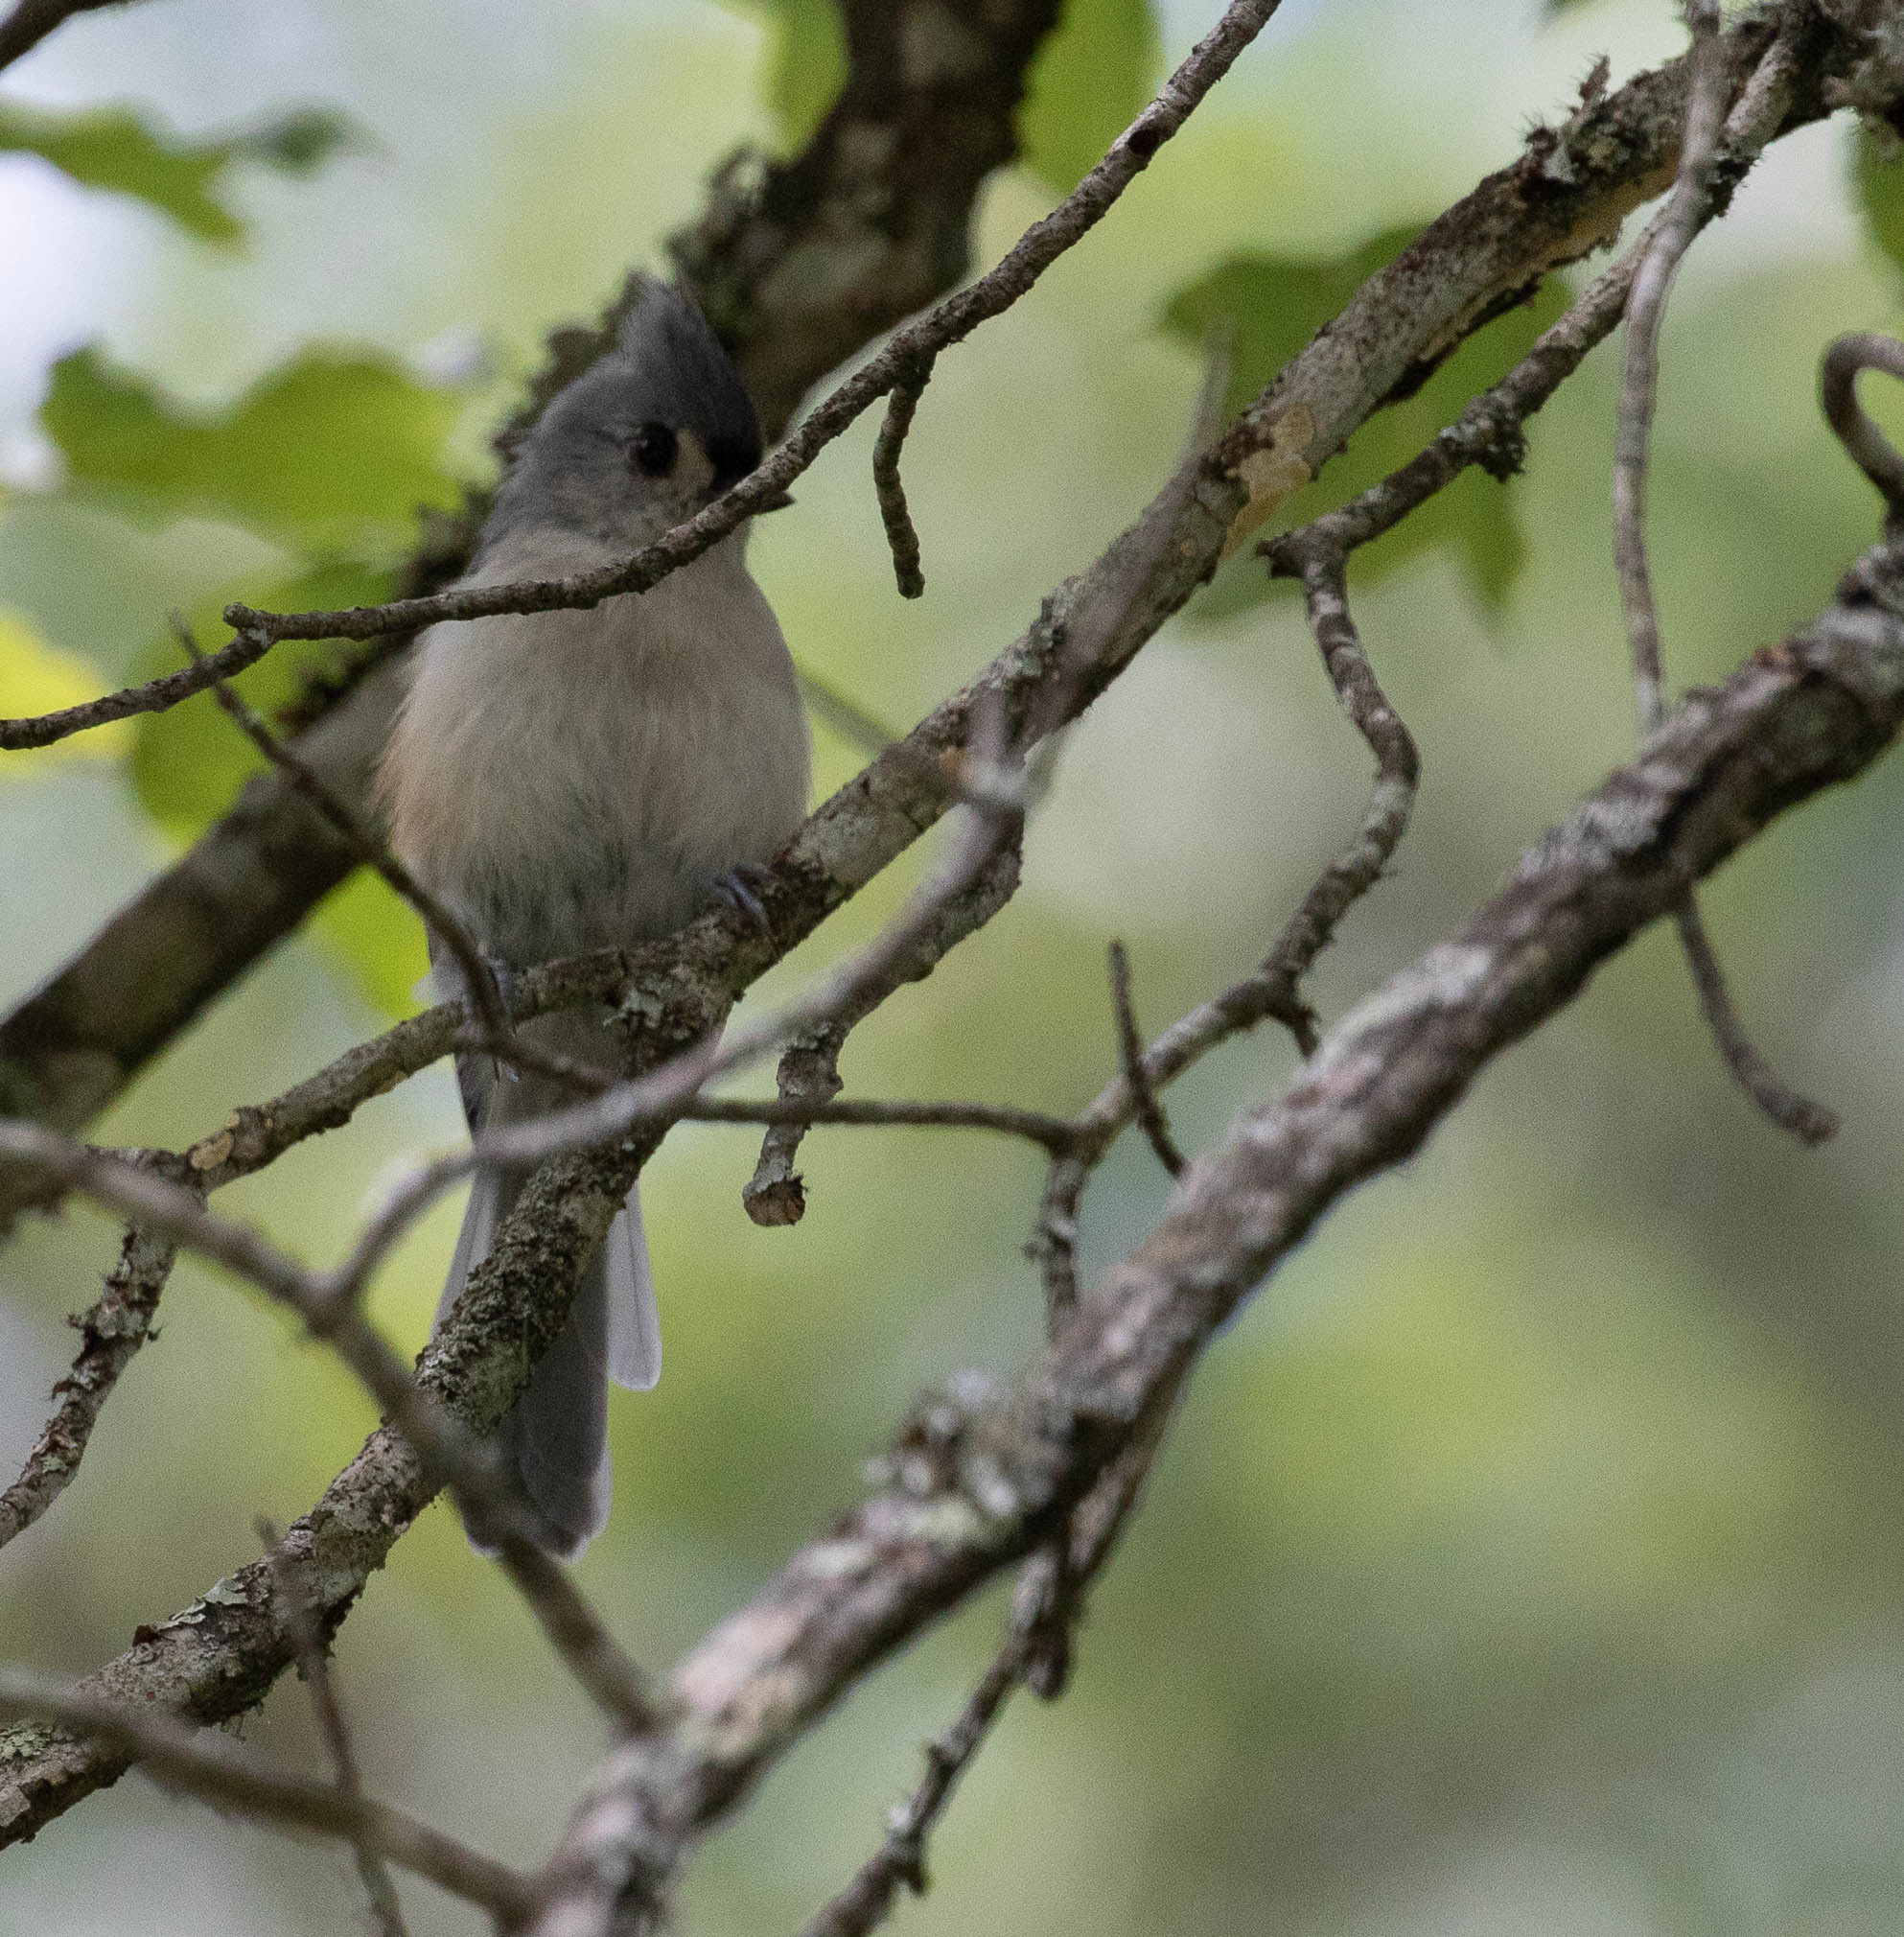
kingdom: Animalia
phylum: Chordata
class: Aves
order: Passeriformes
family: Paridae
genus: Baeolophus
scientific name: Baeolophus bicolor
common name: Tufted titmouse
